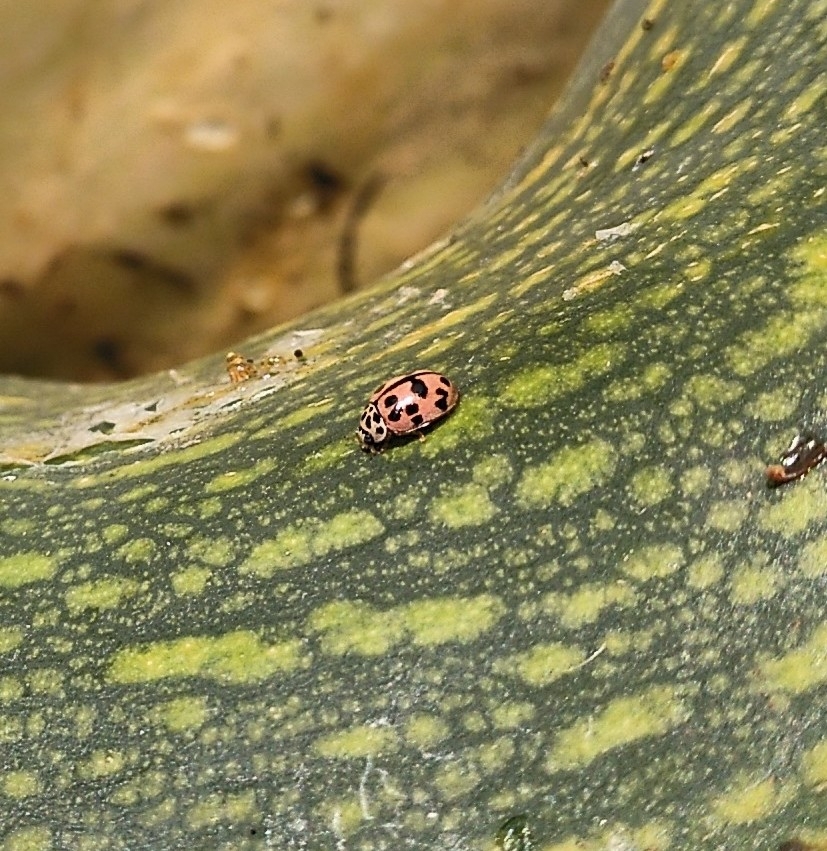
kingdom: Animalia
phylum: Arthropoda
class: Insecta
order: Coleoptera
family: Coccinellidae
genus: Oenopia
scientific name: Oenopia conglobata
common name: Ladybird beetle
